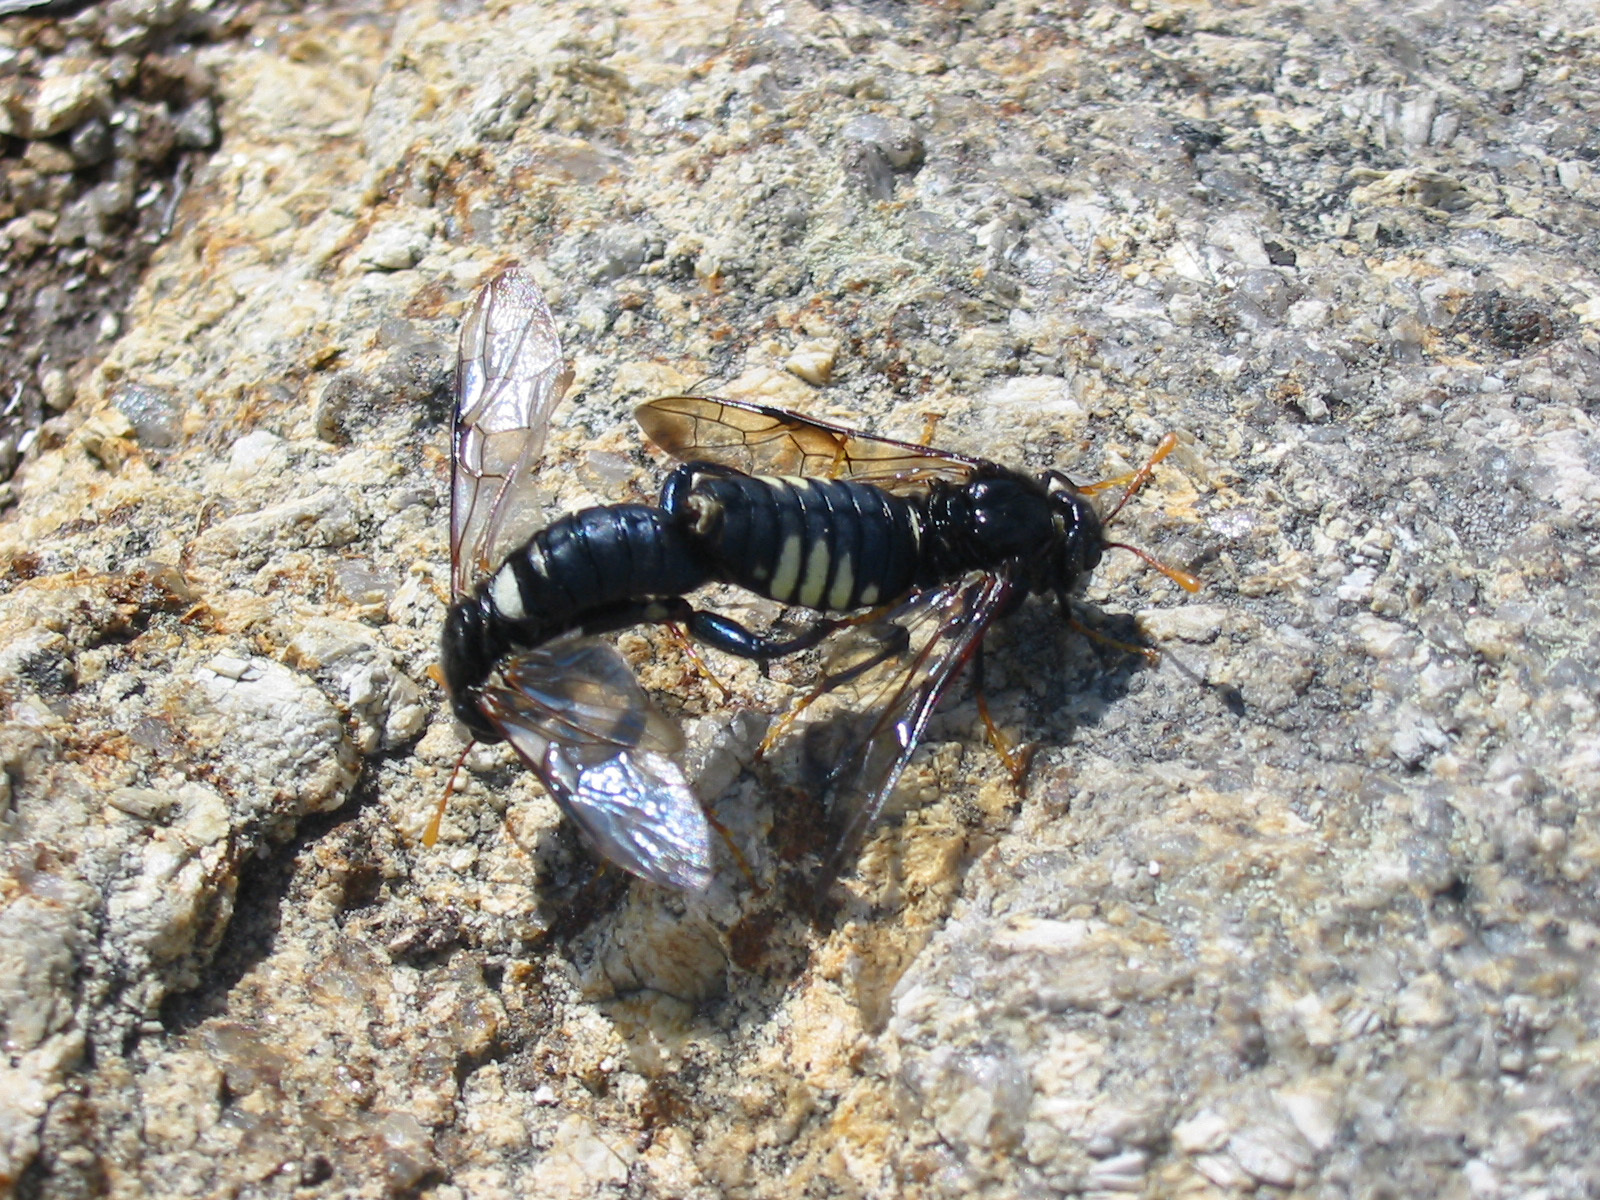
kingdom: Animalia
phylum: Arthropoda
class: Insecta
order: Hymenoptera
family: Cimbicidae
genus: Cimbex
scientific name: Cimbex americana
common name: Elm sawfly
